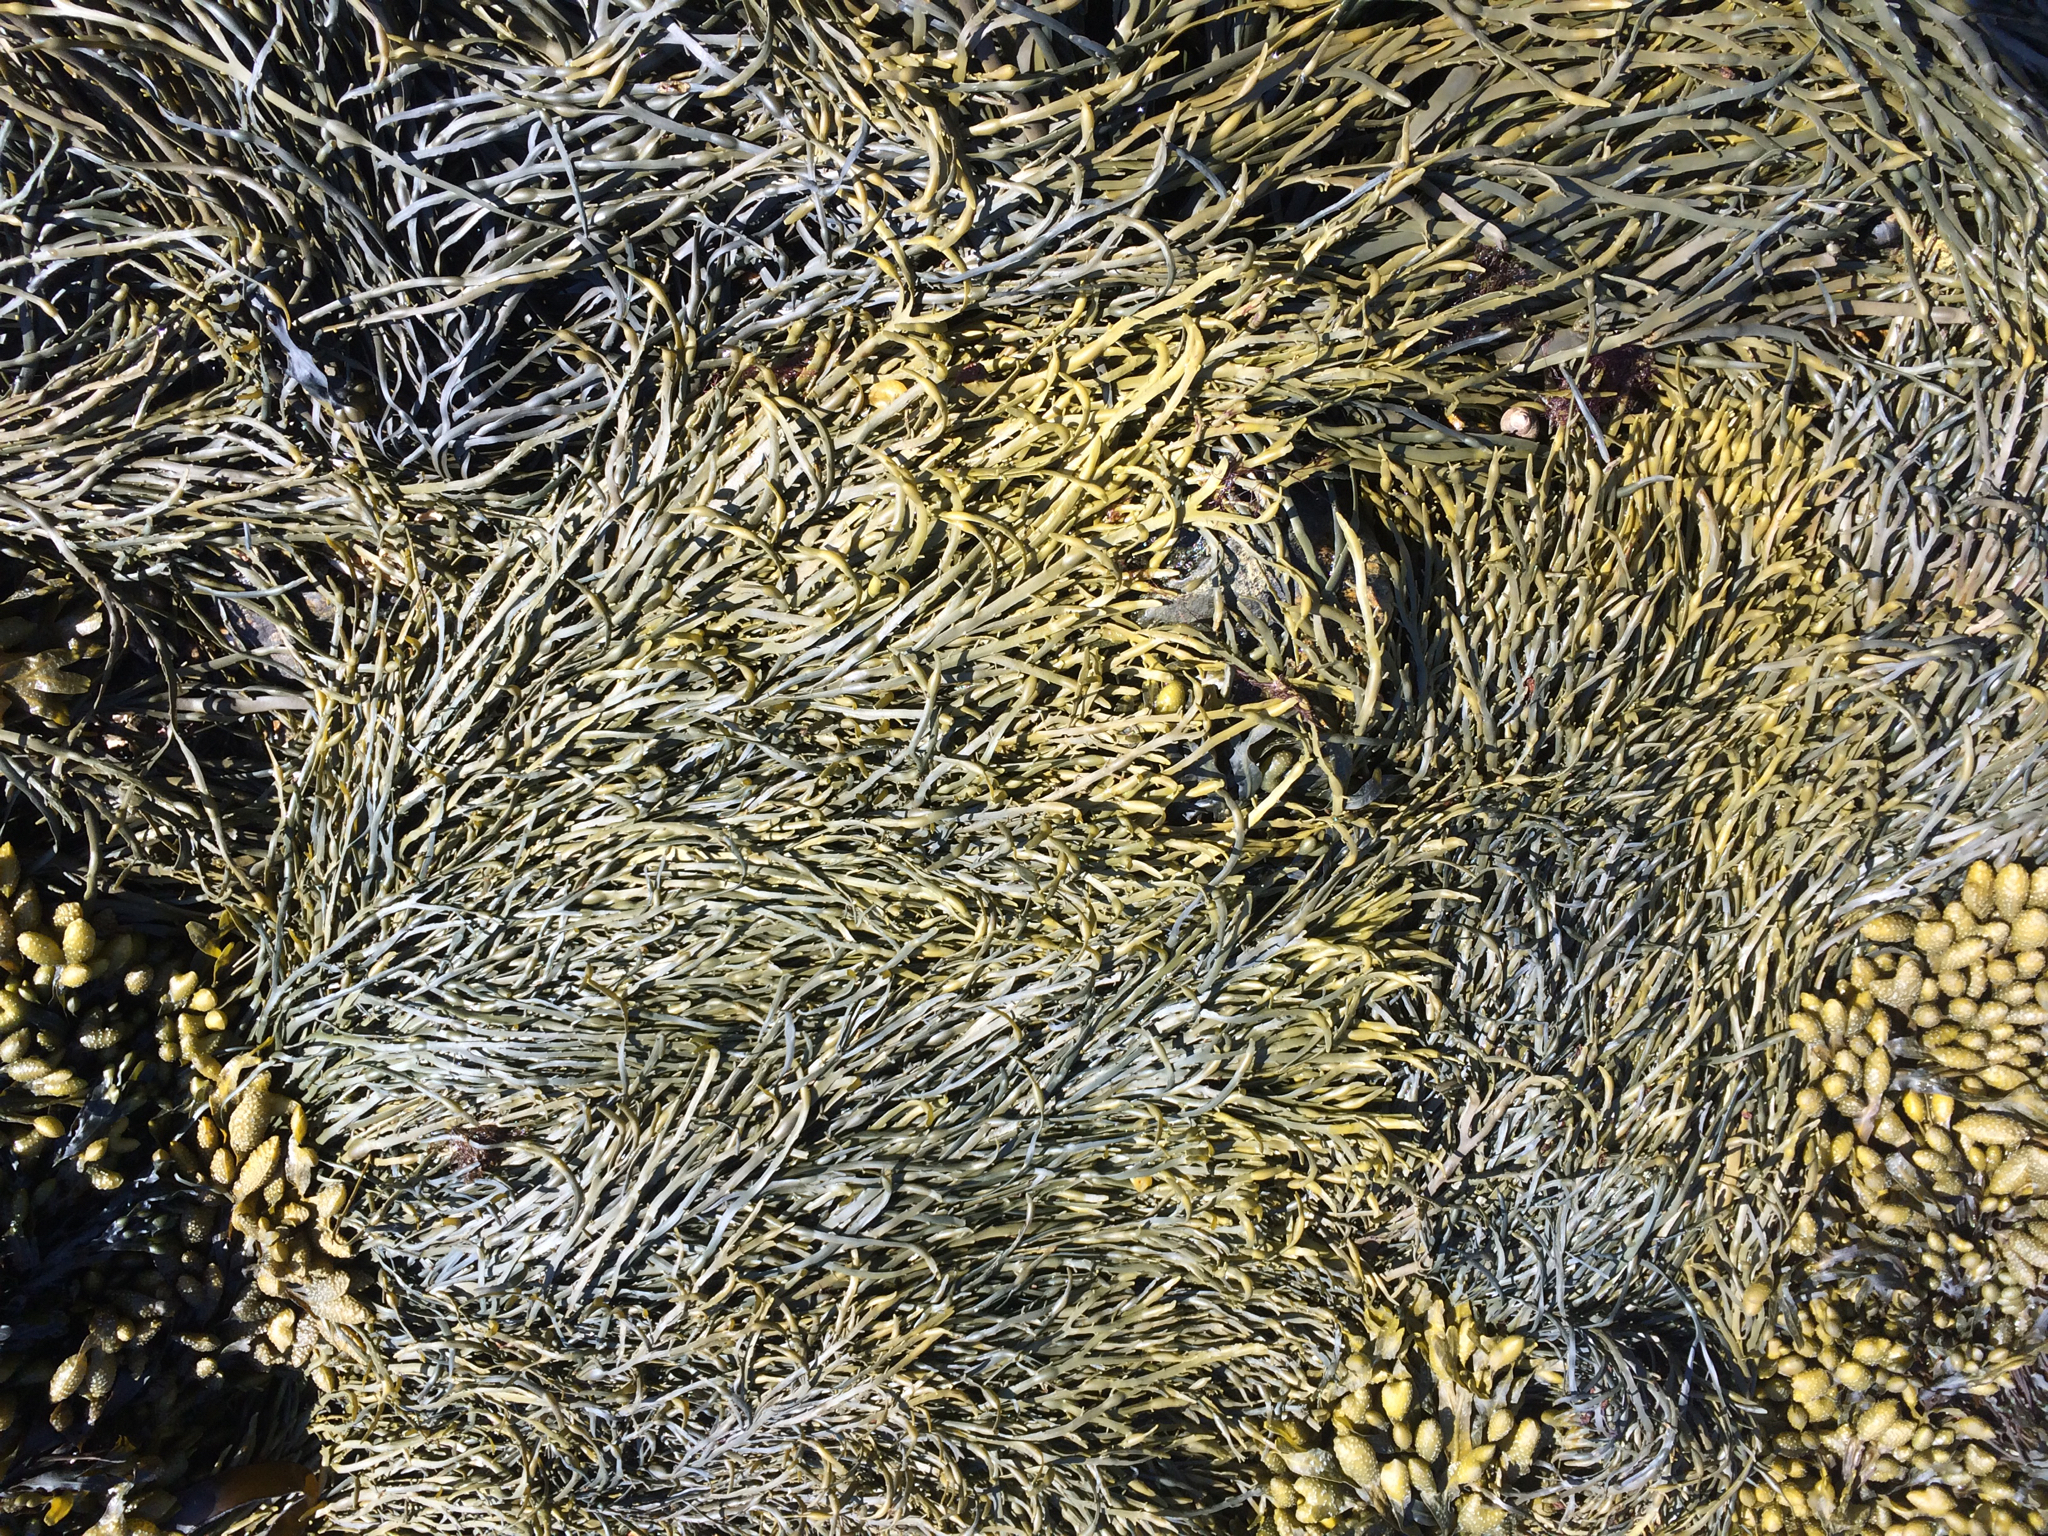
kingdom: Chromista
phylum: Ochrophyta
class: Phaeophyceae
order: Fucales
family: Fucaceae
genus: Ascophyllum
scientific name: Ascophyllum nodosum
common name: Knotted wrack
